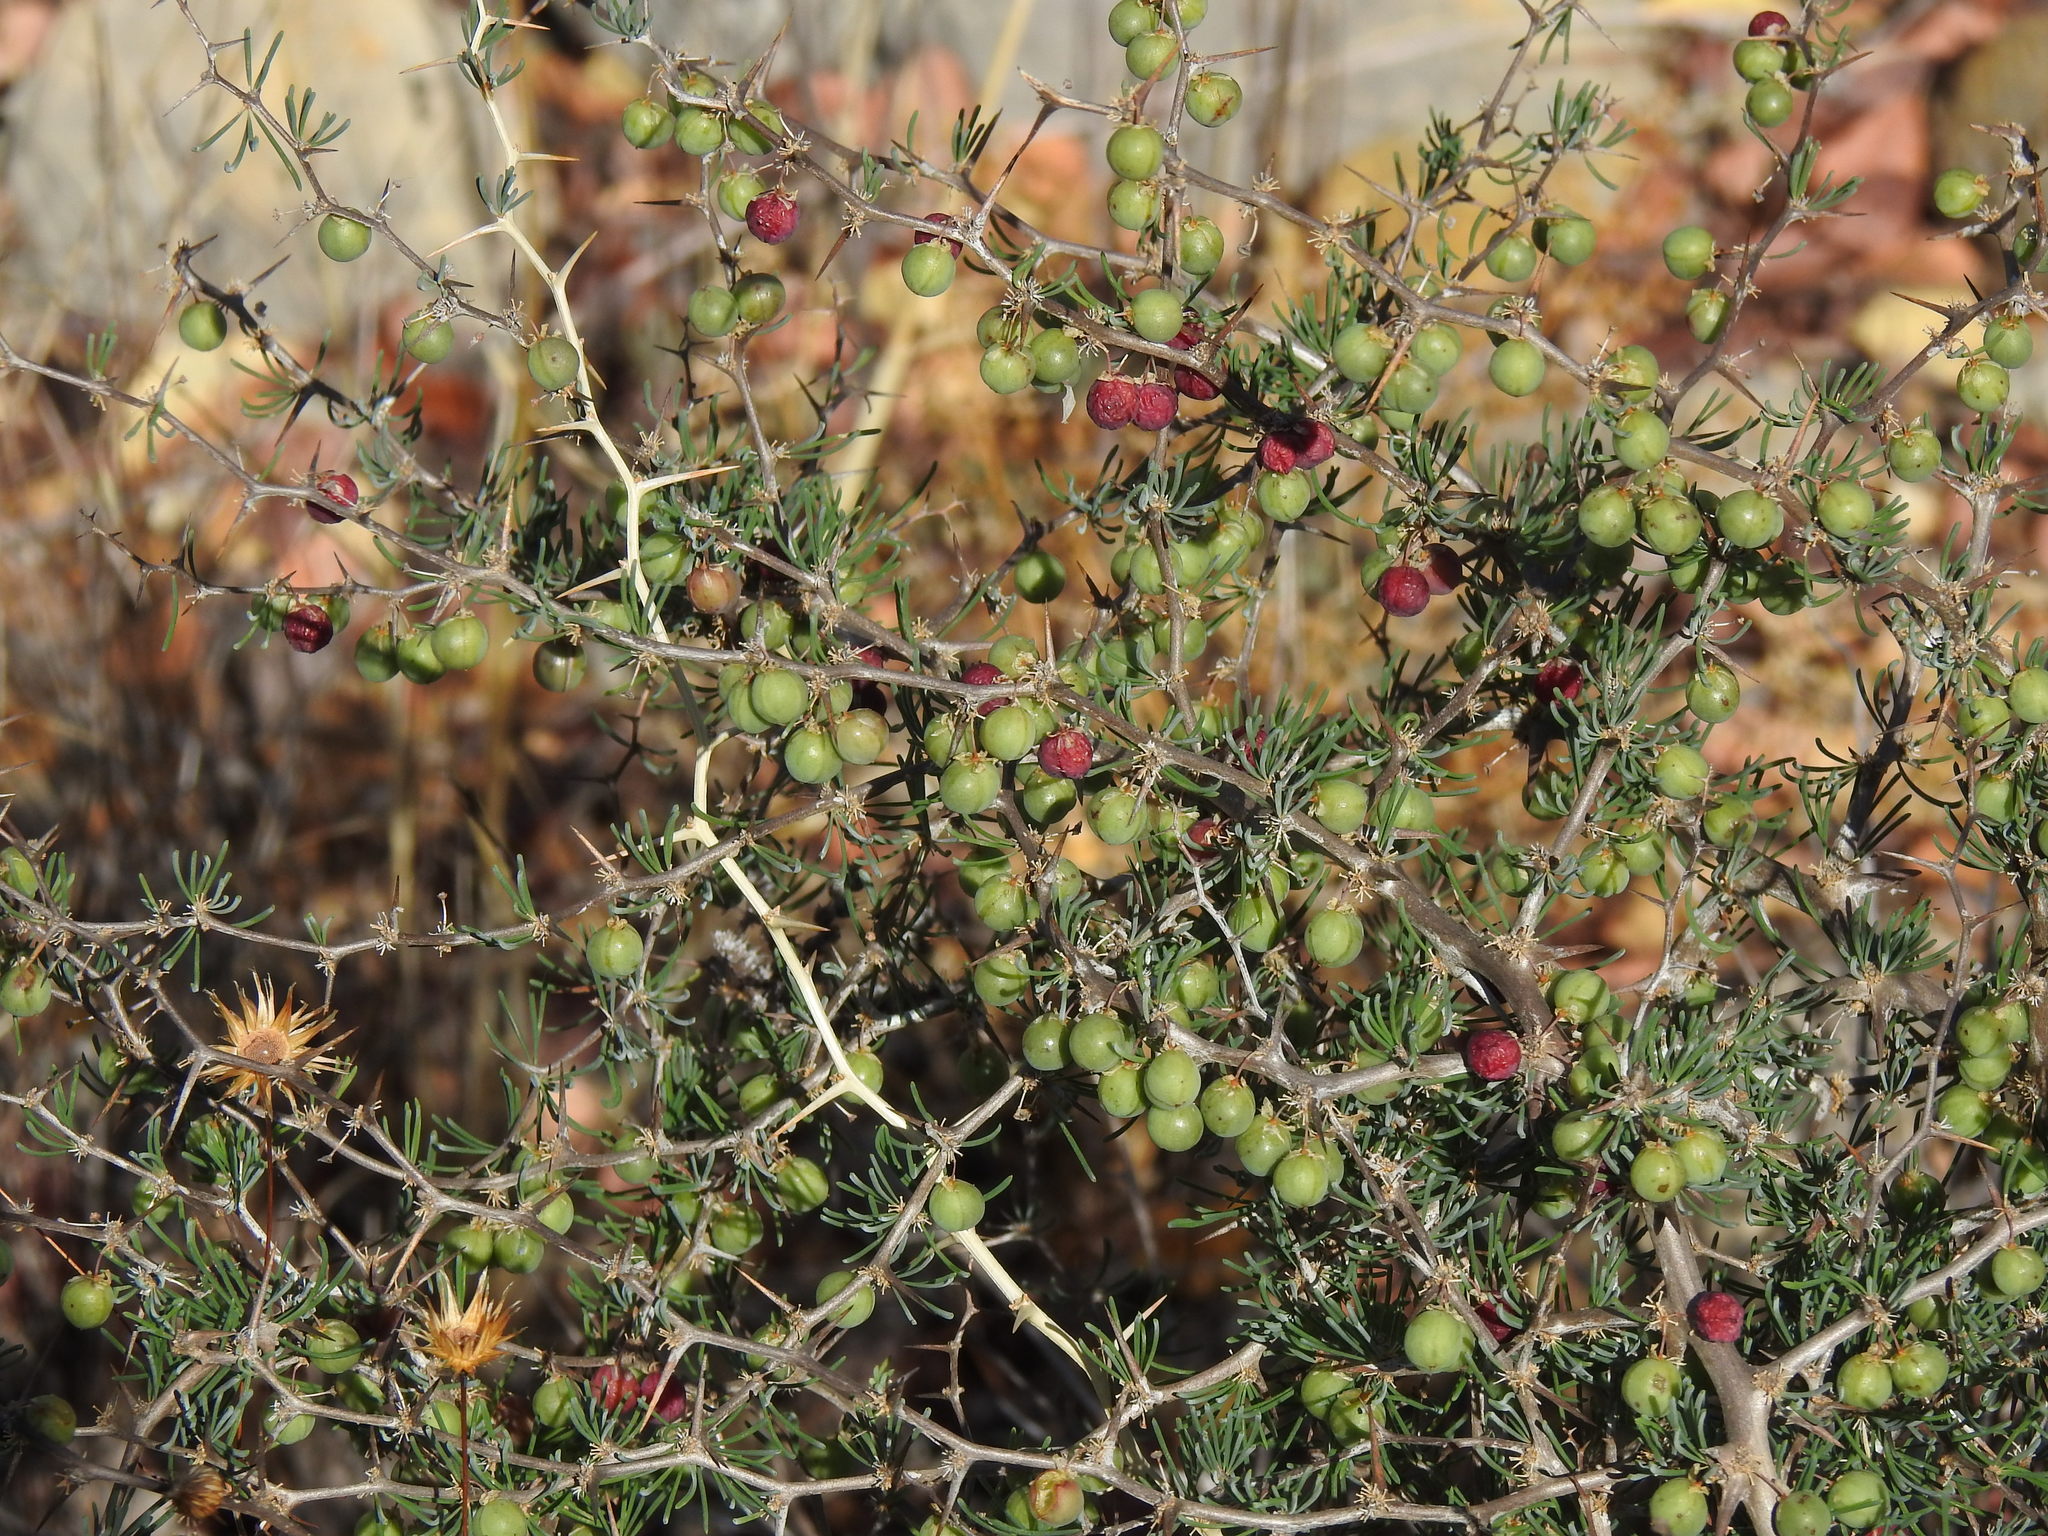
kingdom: Plantae
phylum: Tracheophyta
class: Liliopsida
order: Asparagales
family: Asparagaceae
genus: Asparagus
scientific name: Asparagus albus
